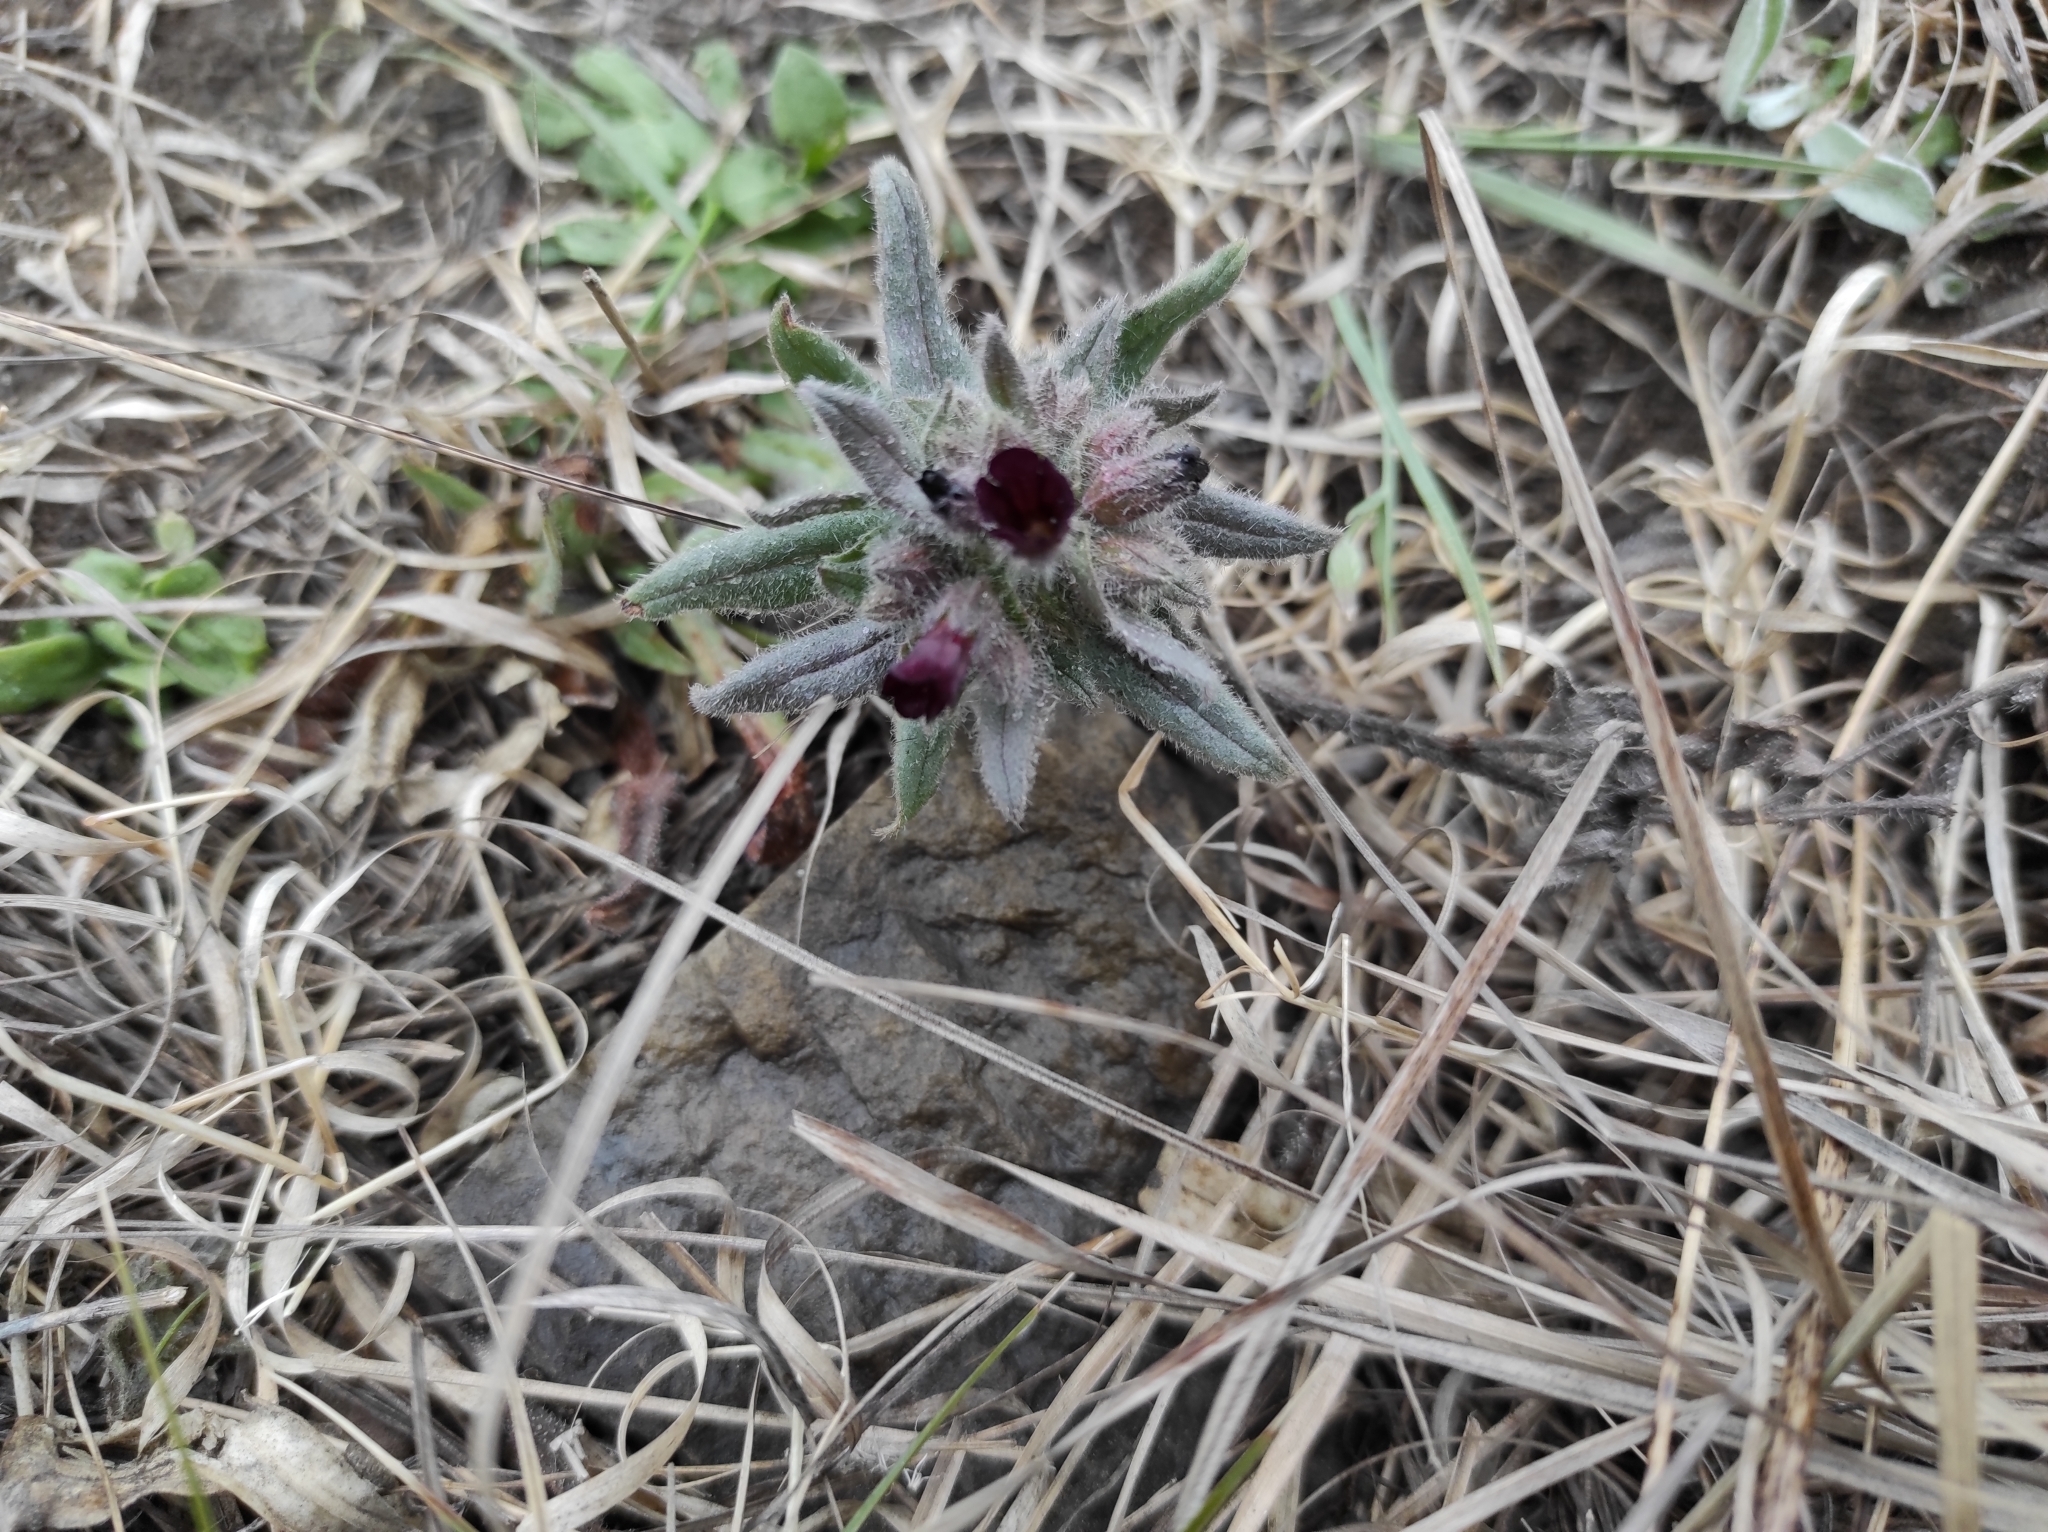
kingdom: Plantae
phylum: Tracheophyta
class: Magnoliopsida
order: Boraginales
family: Boraginaceae
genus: Nonea
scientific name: Nonea pulla
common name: Brown nonea
